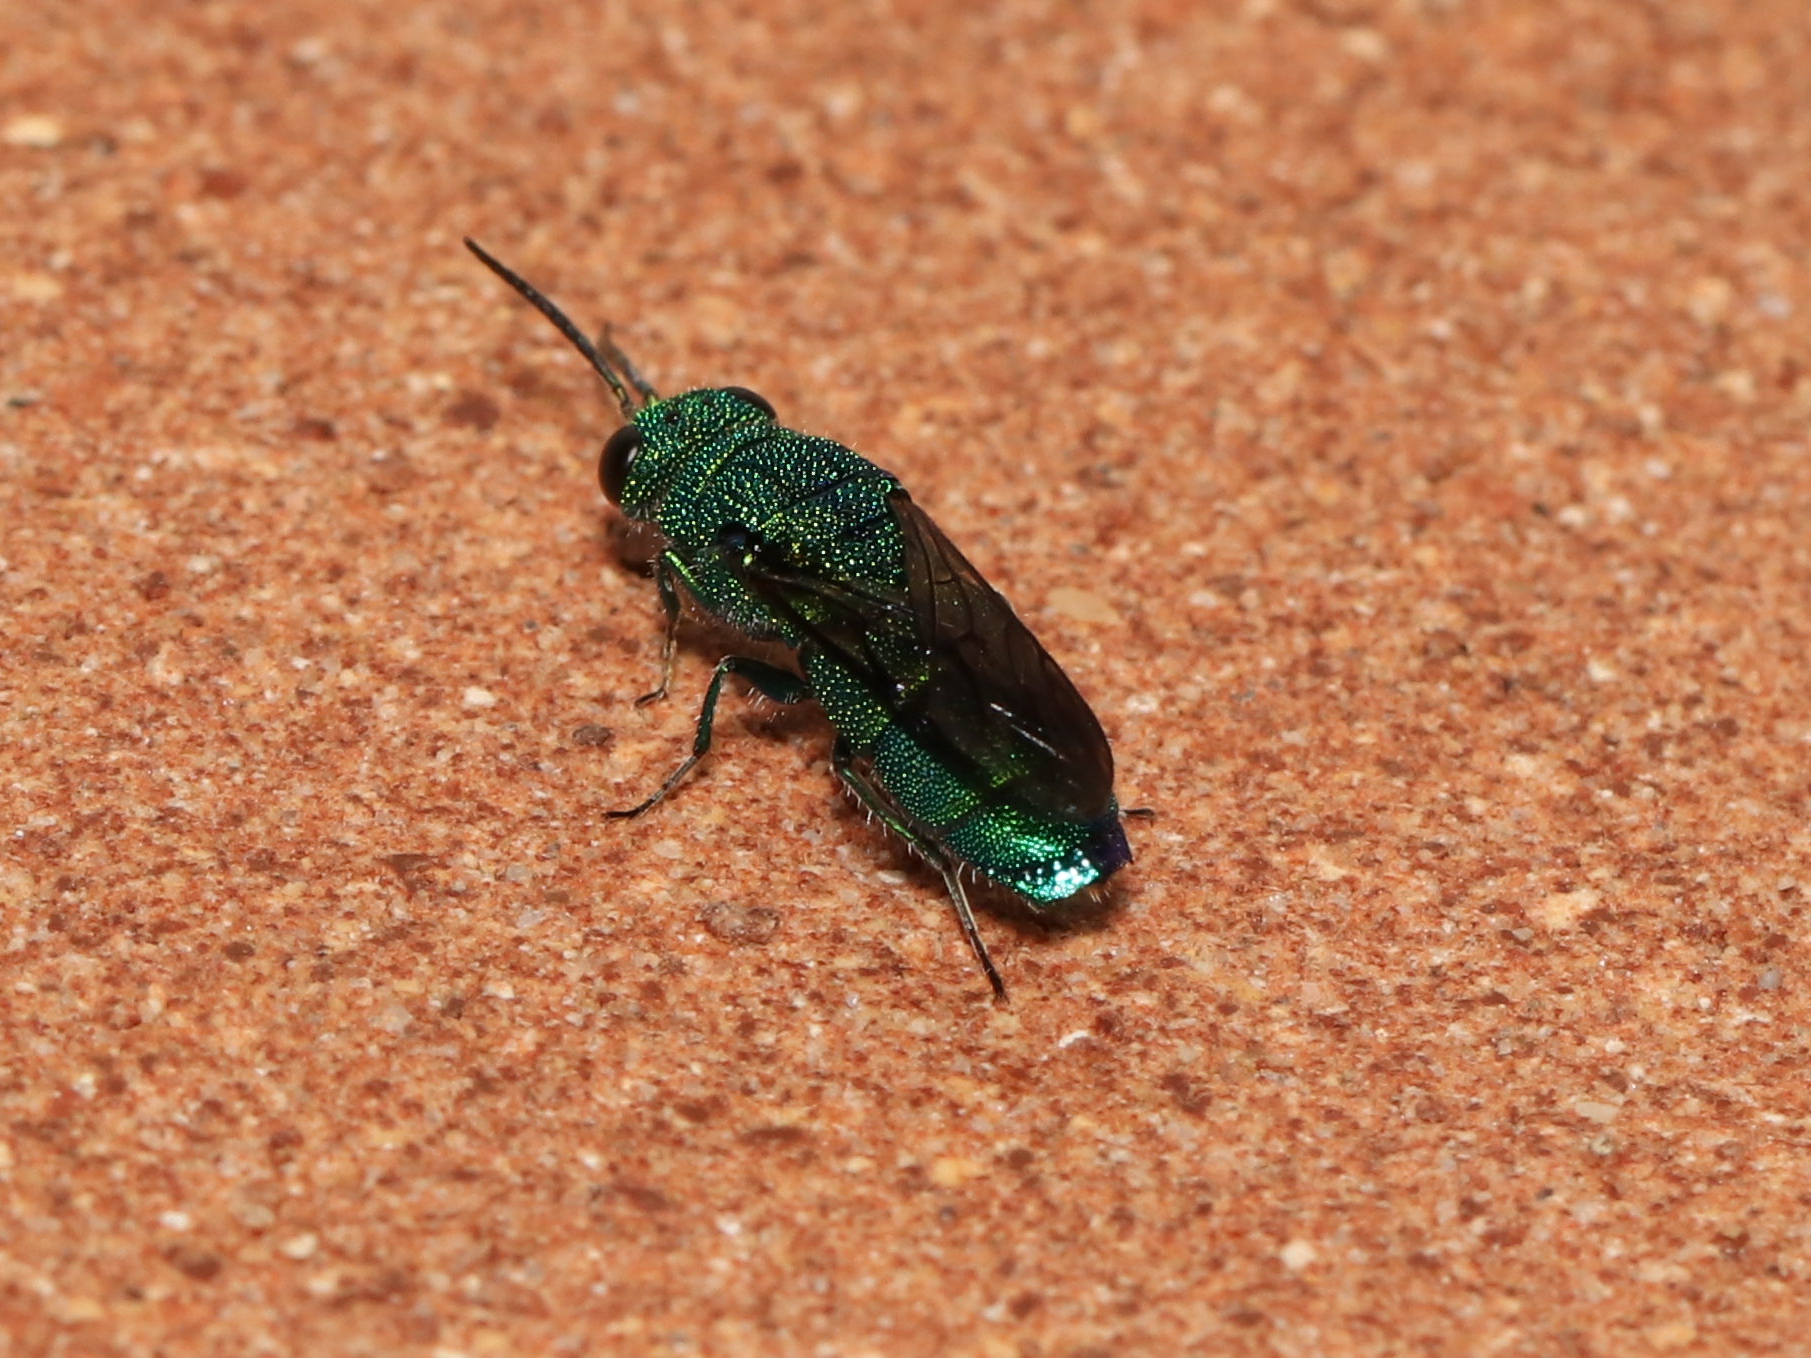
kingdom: Animalia
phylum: Arthropoda
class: Insecta
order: Hymenoptera
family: Chrysididae
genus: Caenochrysis
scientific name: Caenochrysis
